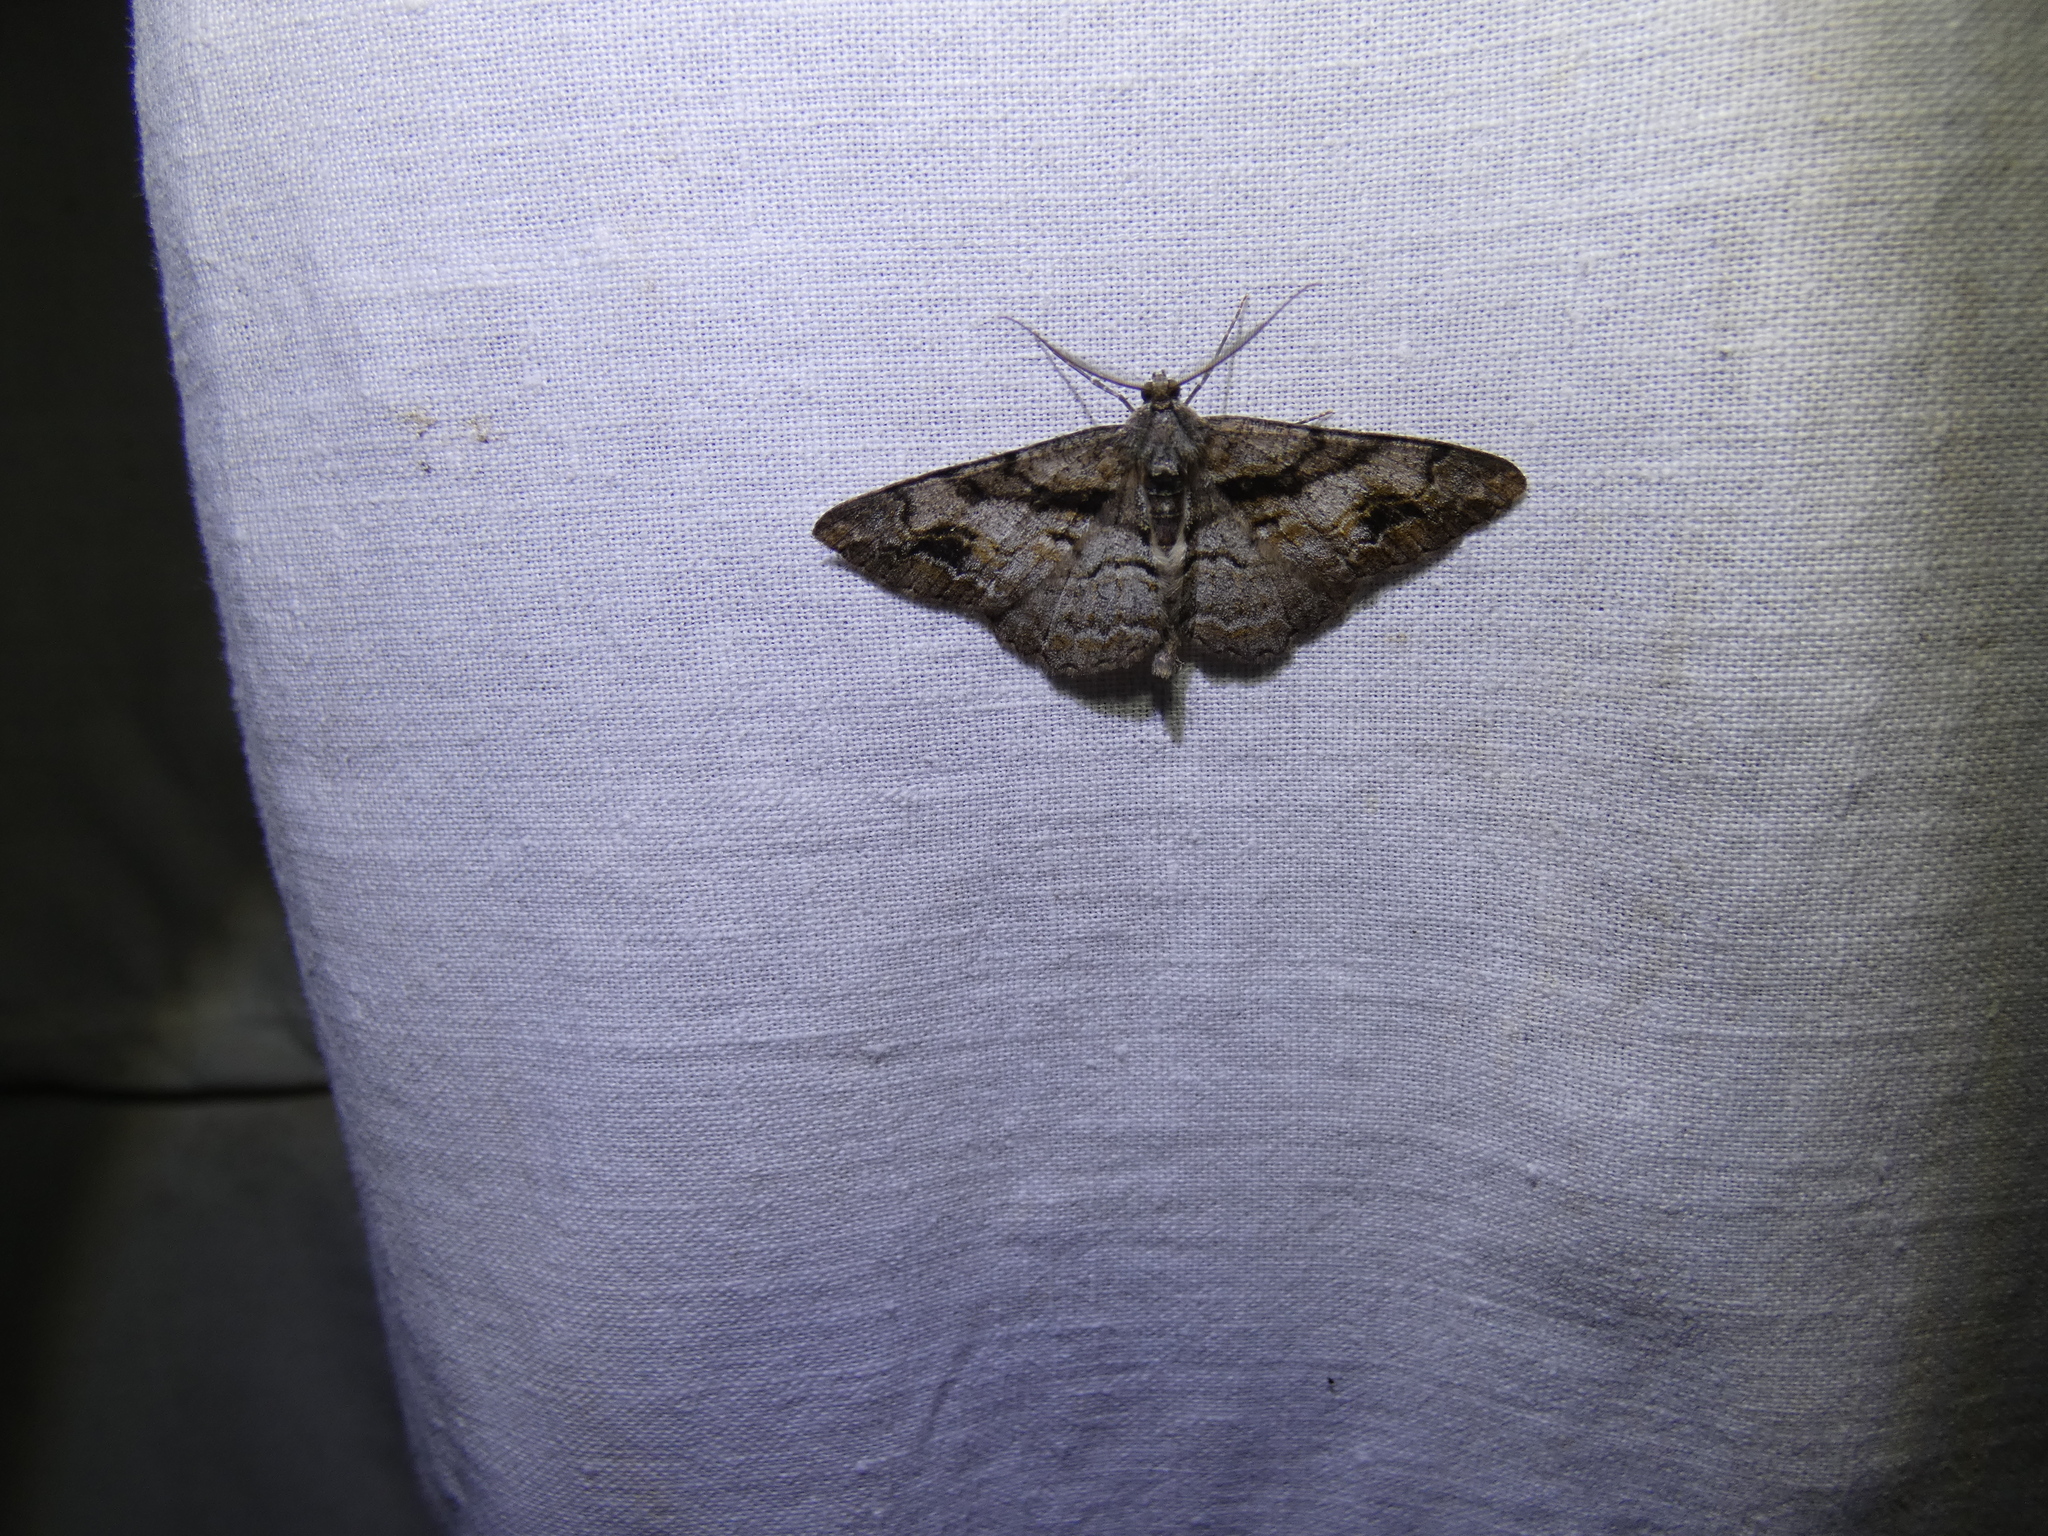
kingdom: Animalia
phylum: Arthropoda
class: Insecta
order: Lepidoptera
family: Geometridae
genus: Alcis
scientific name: Alcis deversata
